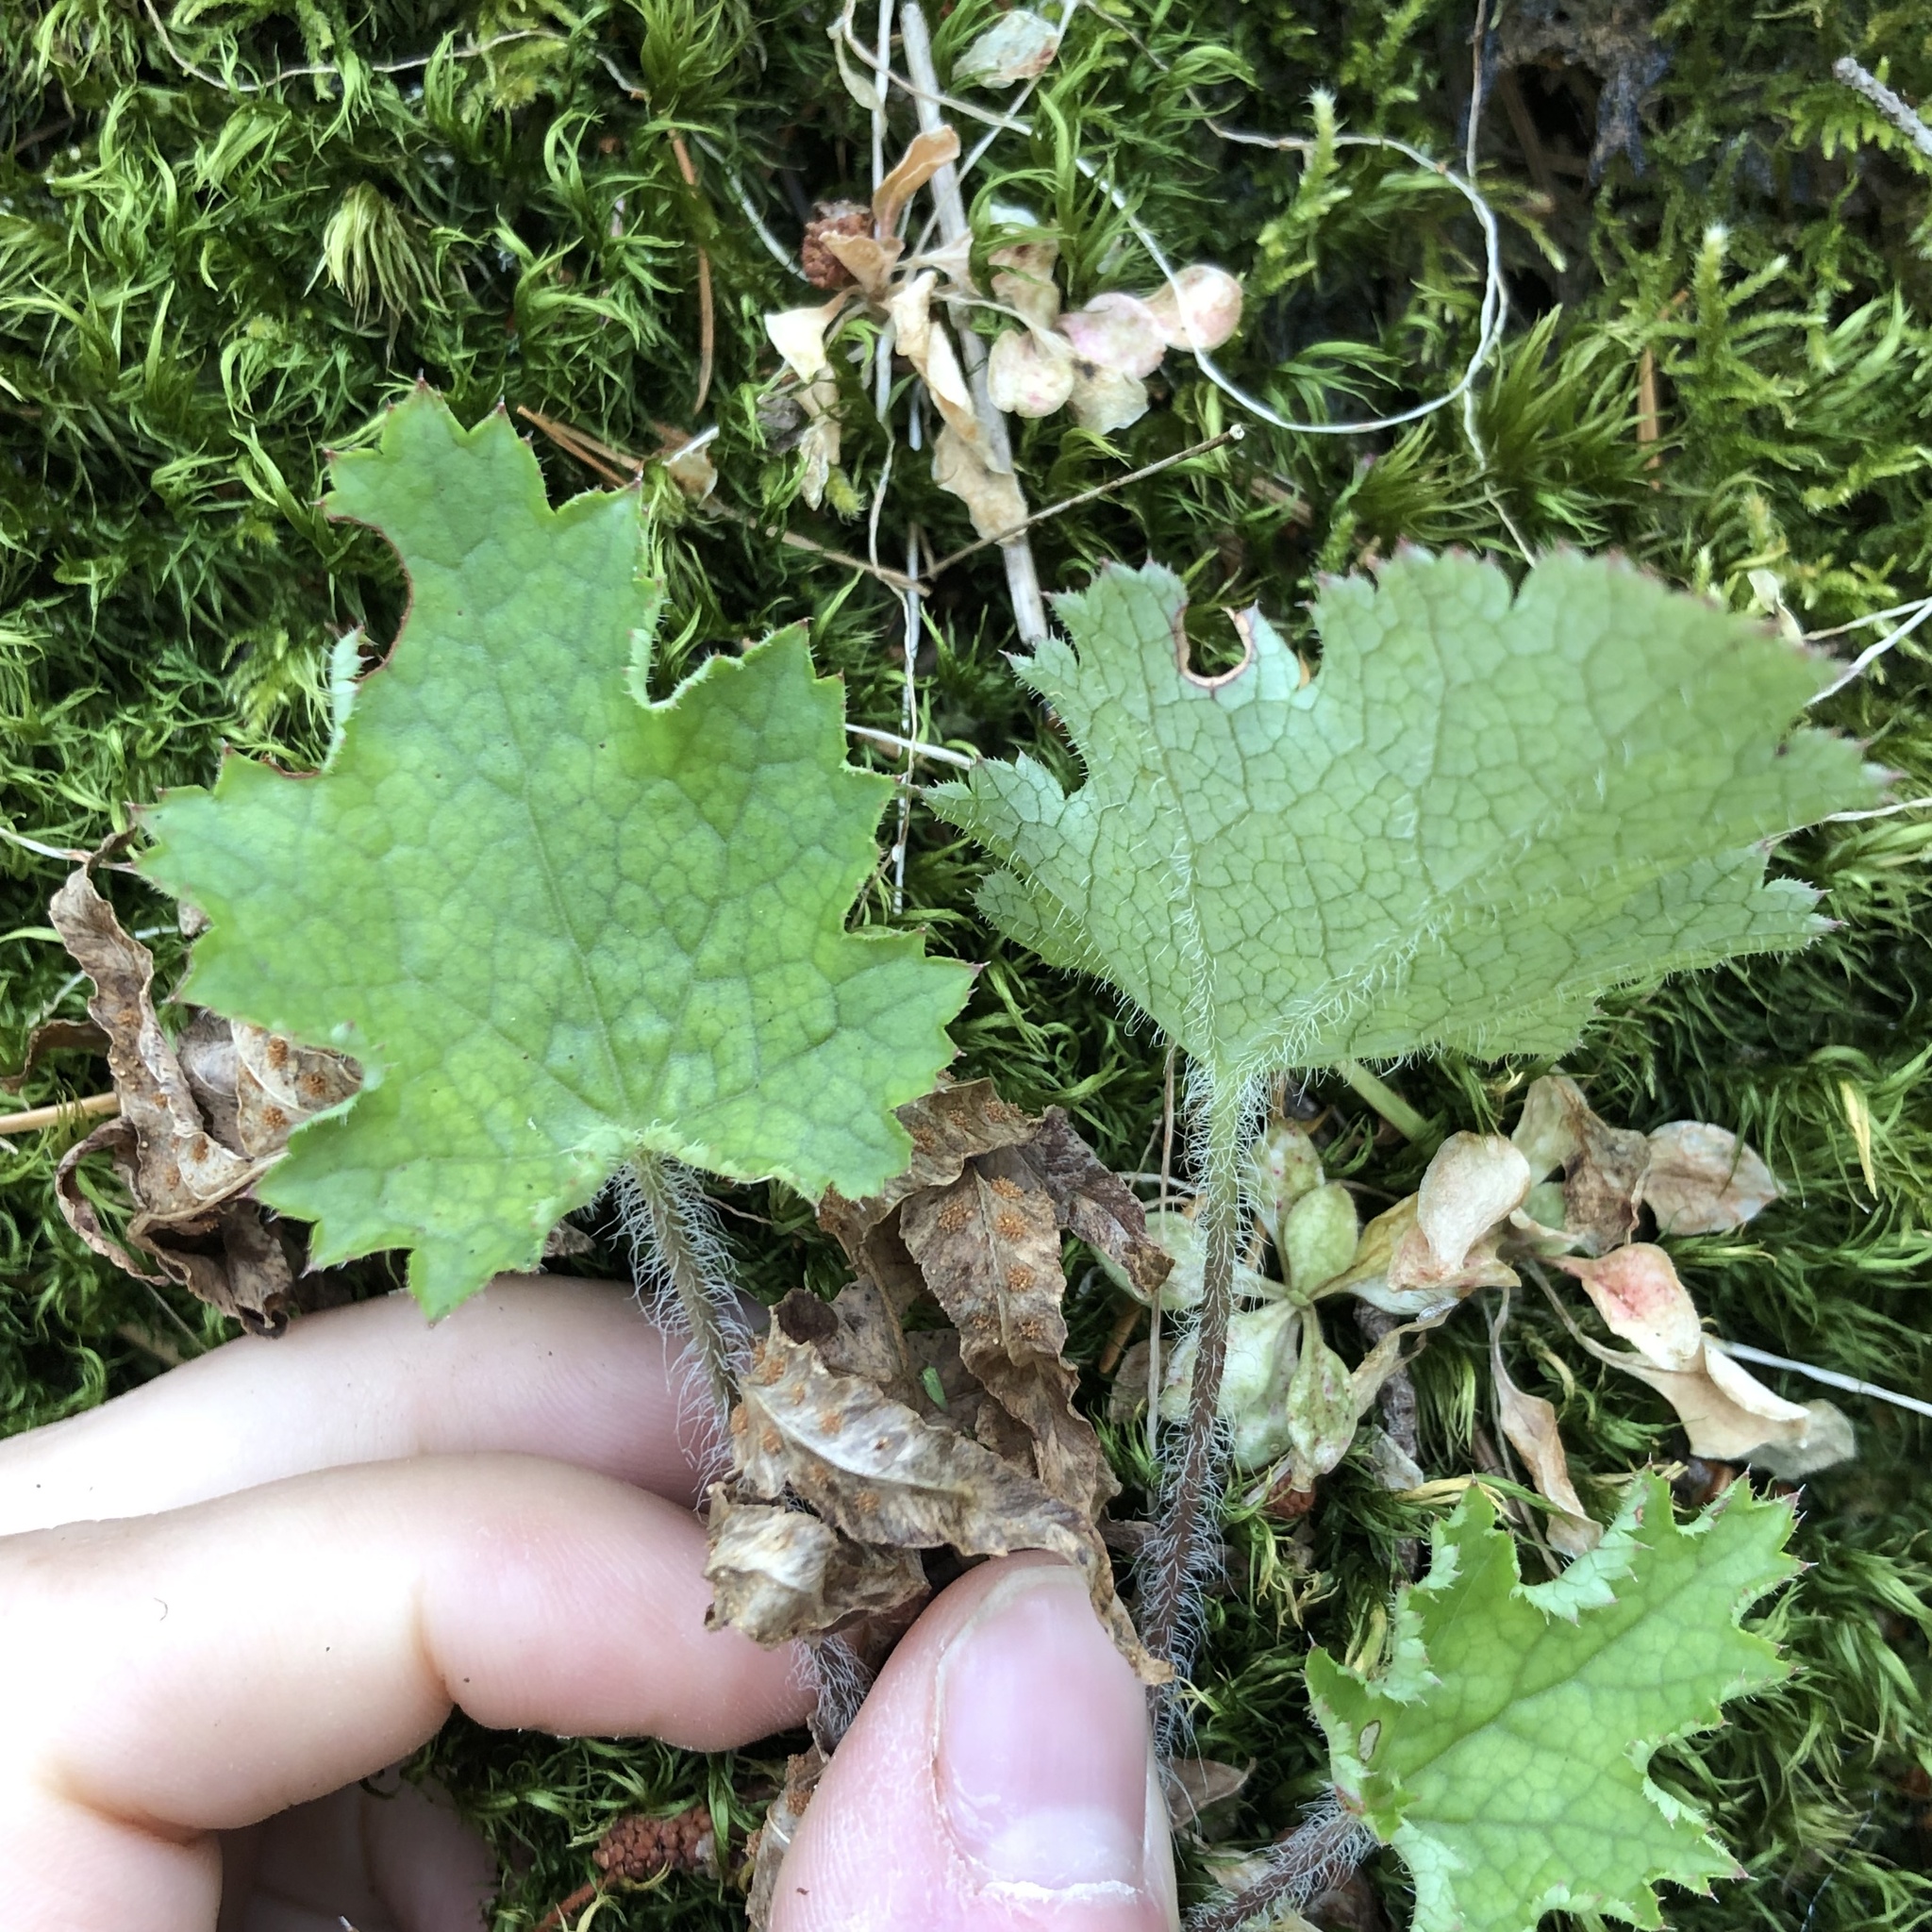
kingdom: Plantae
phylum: Tracheophyta
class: Magnoliopsida
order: Saxifragales
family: Saxifragaceae
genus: Heuchera
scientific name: Heuchera micrantha
